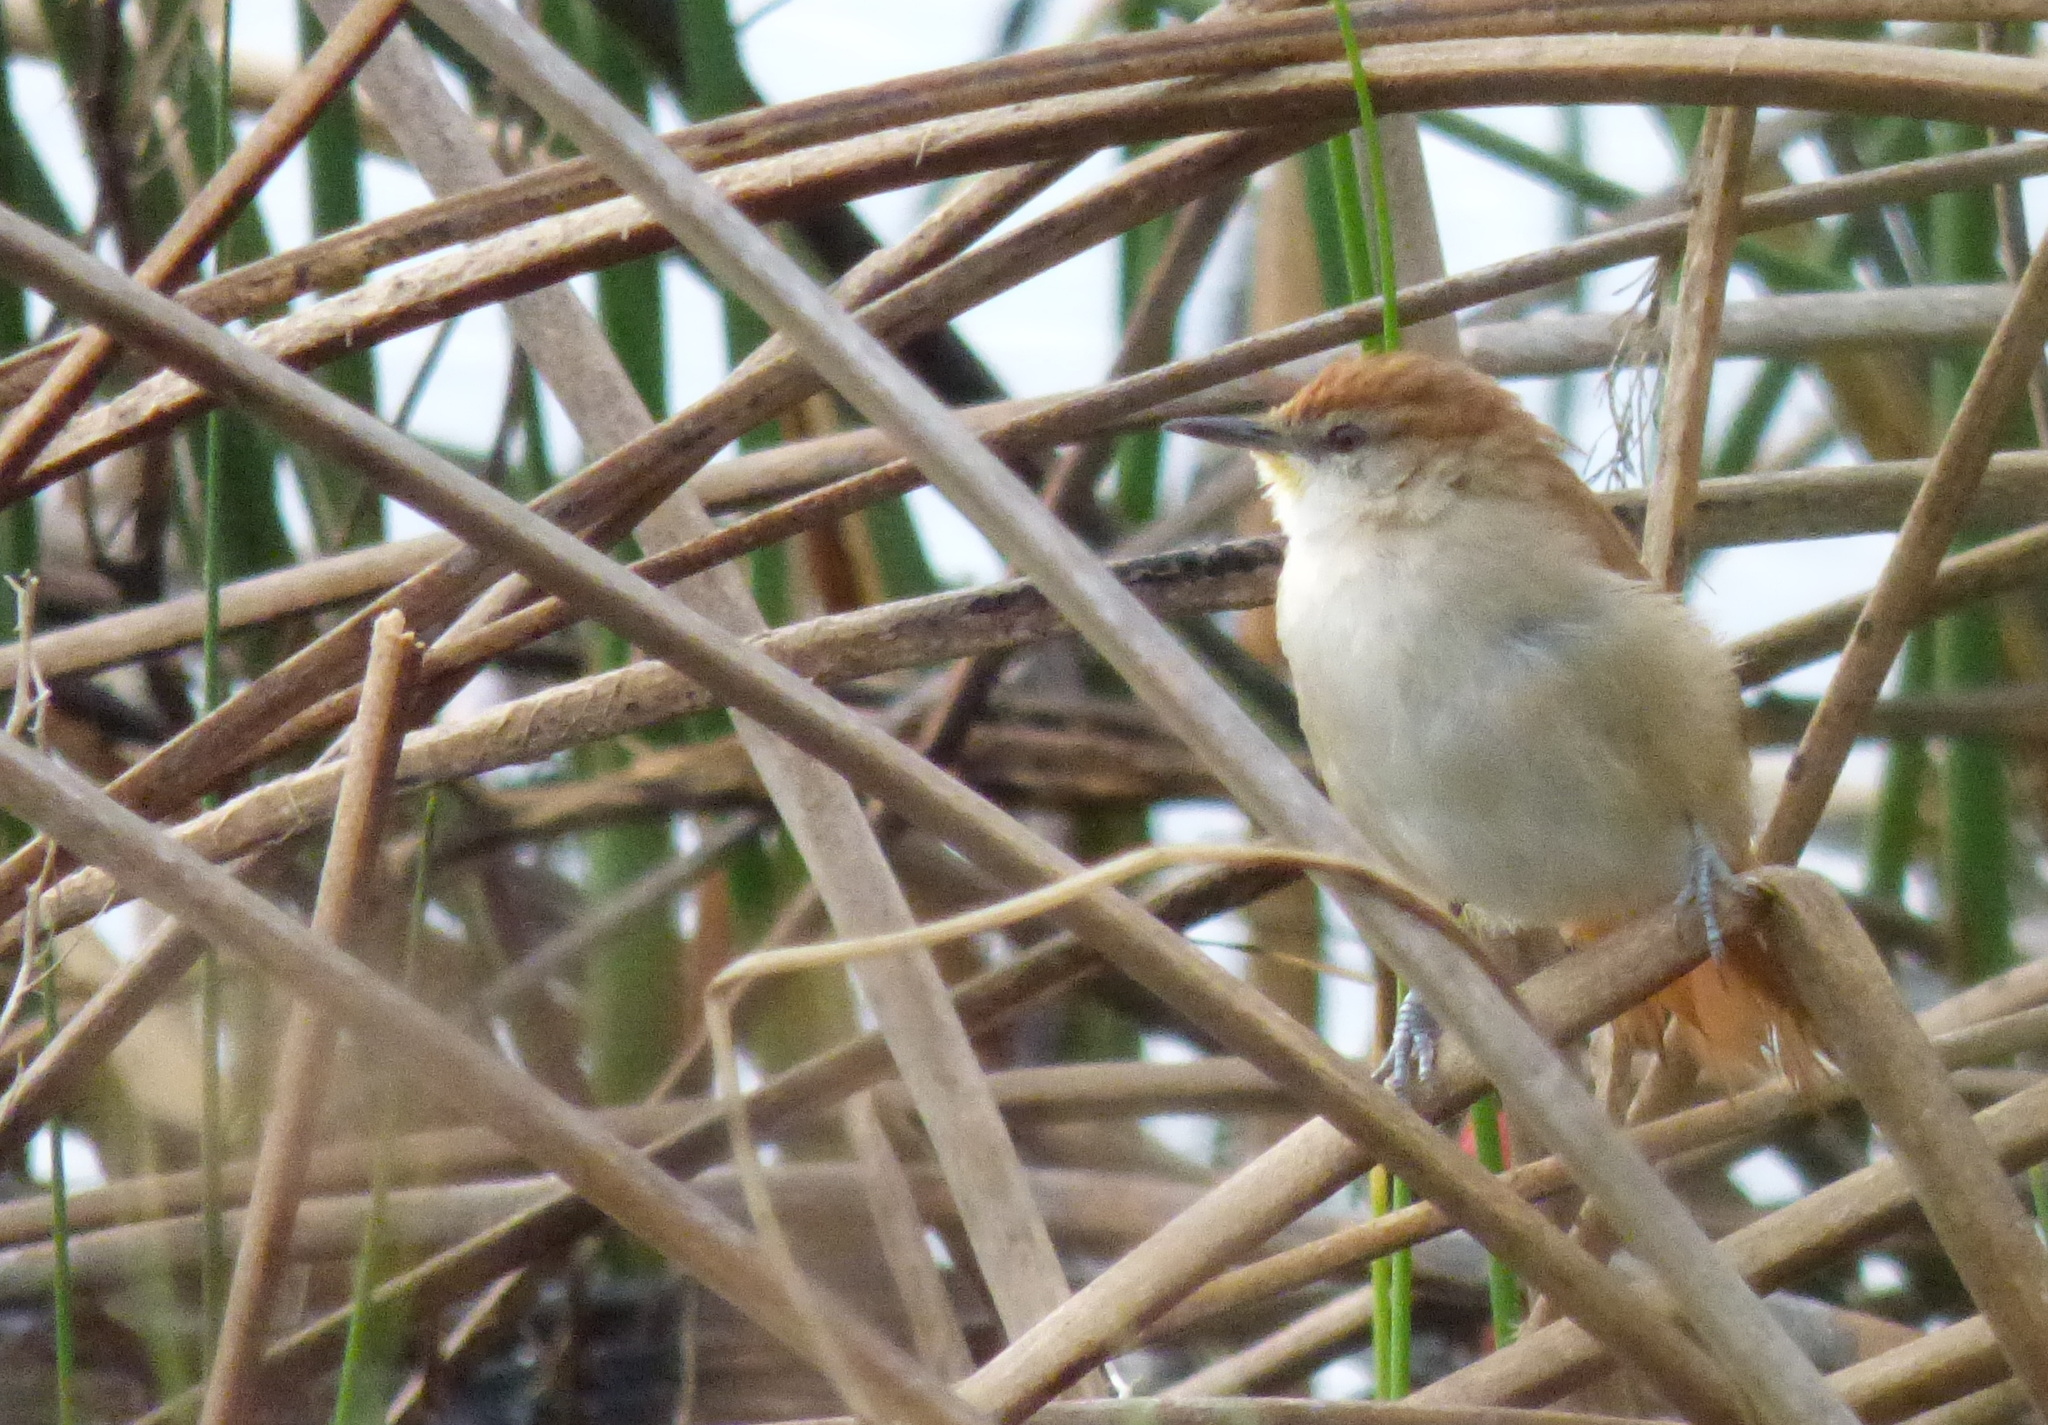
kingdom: Animalia
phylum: Chordata
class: Aves
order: Passeriformes
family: Furnariidae
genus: Certhiaxis
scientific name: Certhiaxis cinnamomeus
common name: Yellow-chinned spinetail
